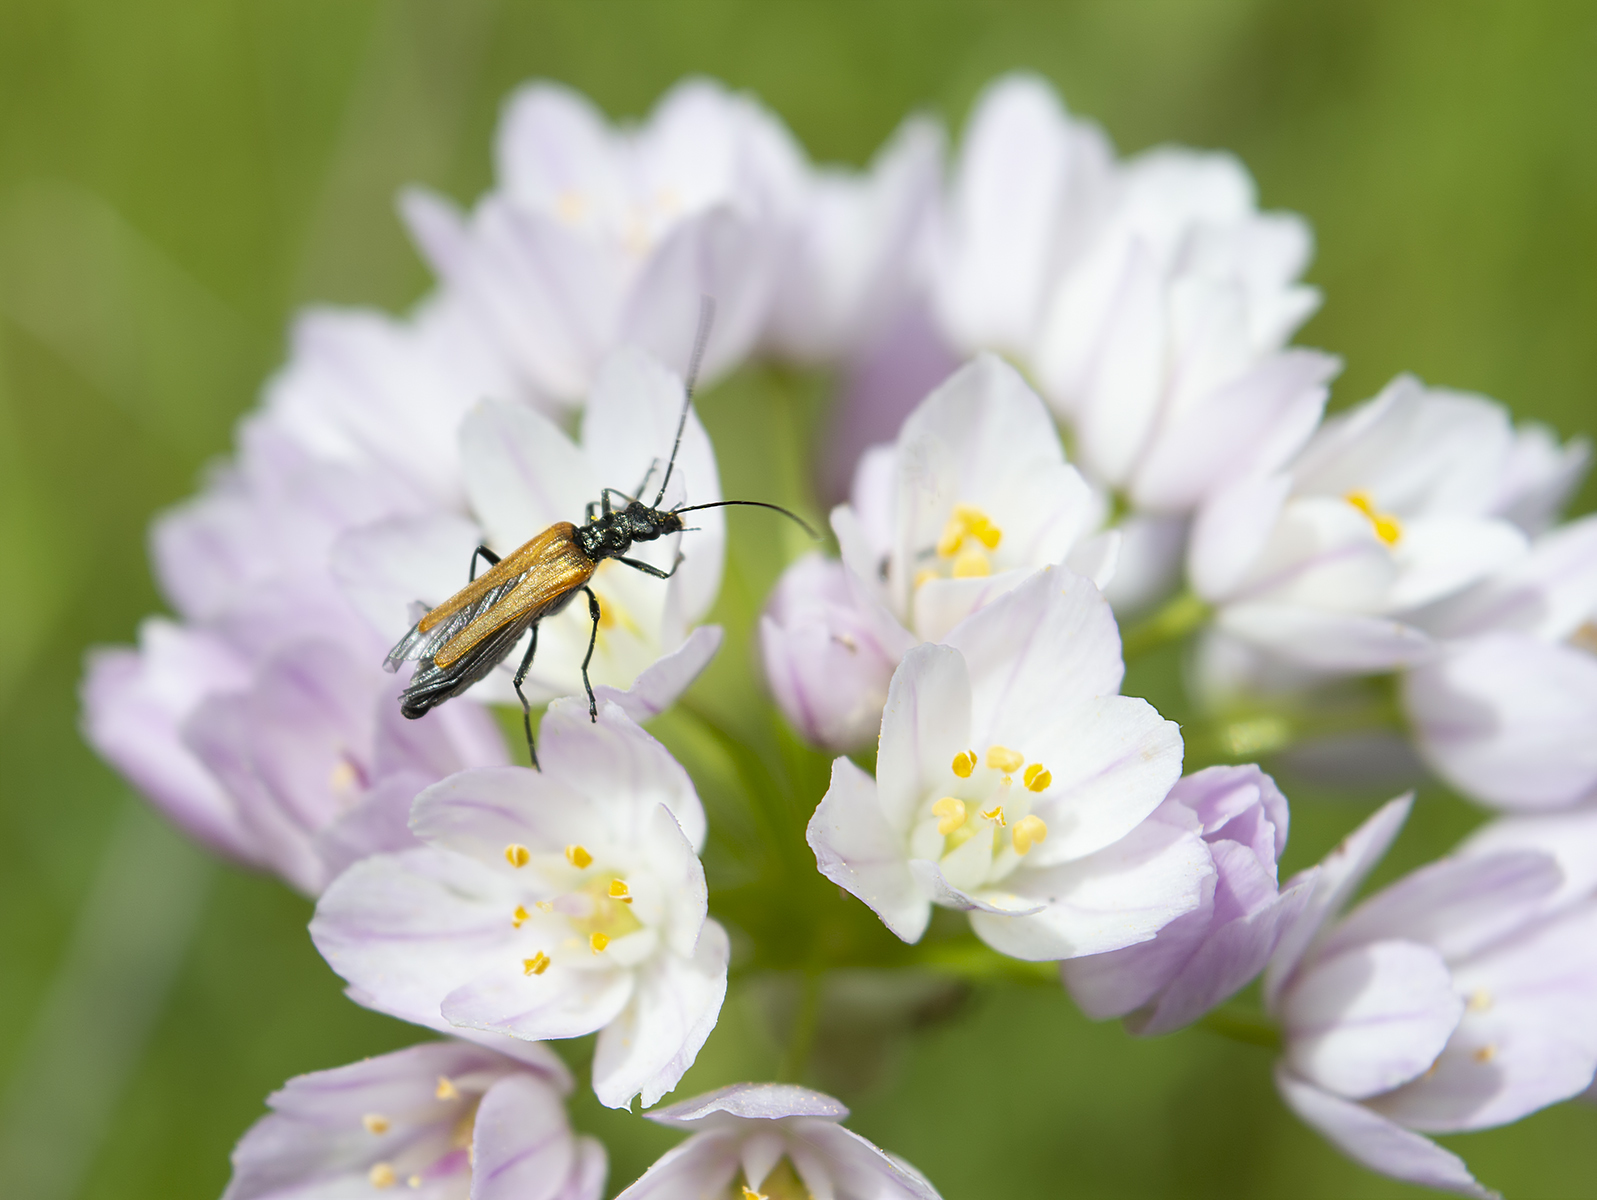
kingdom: Animalia
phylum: Arthropoda
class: Insecta
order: Coleoptera
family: Oedemeridae
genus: Oedemera
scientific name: Oedemera femorata
